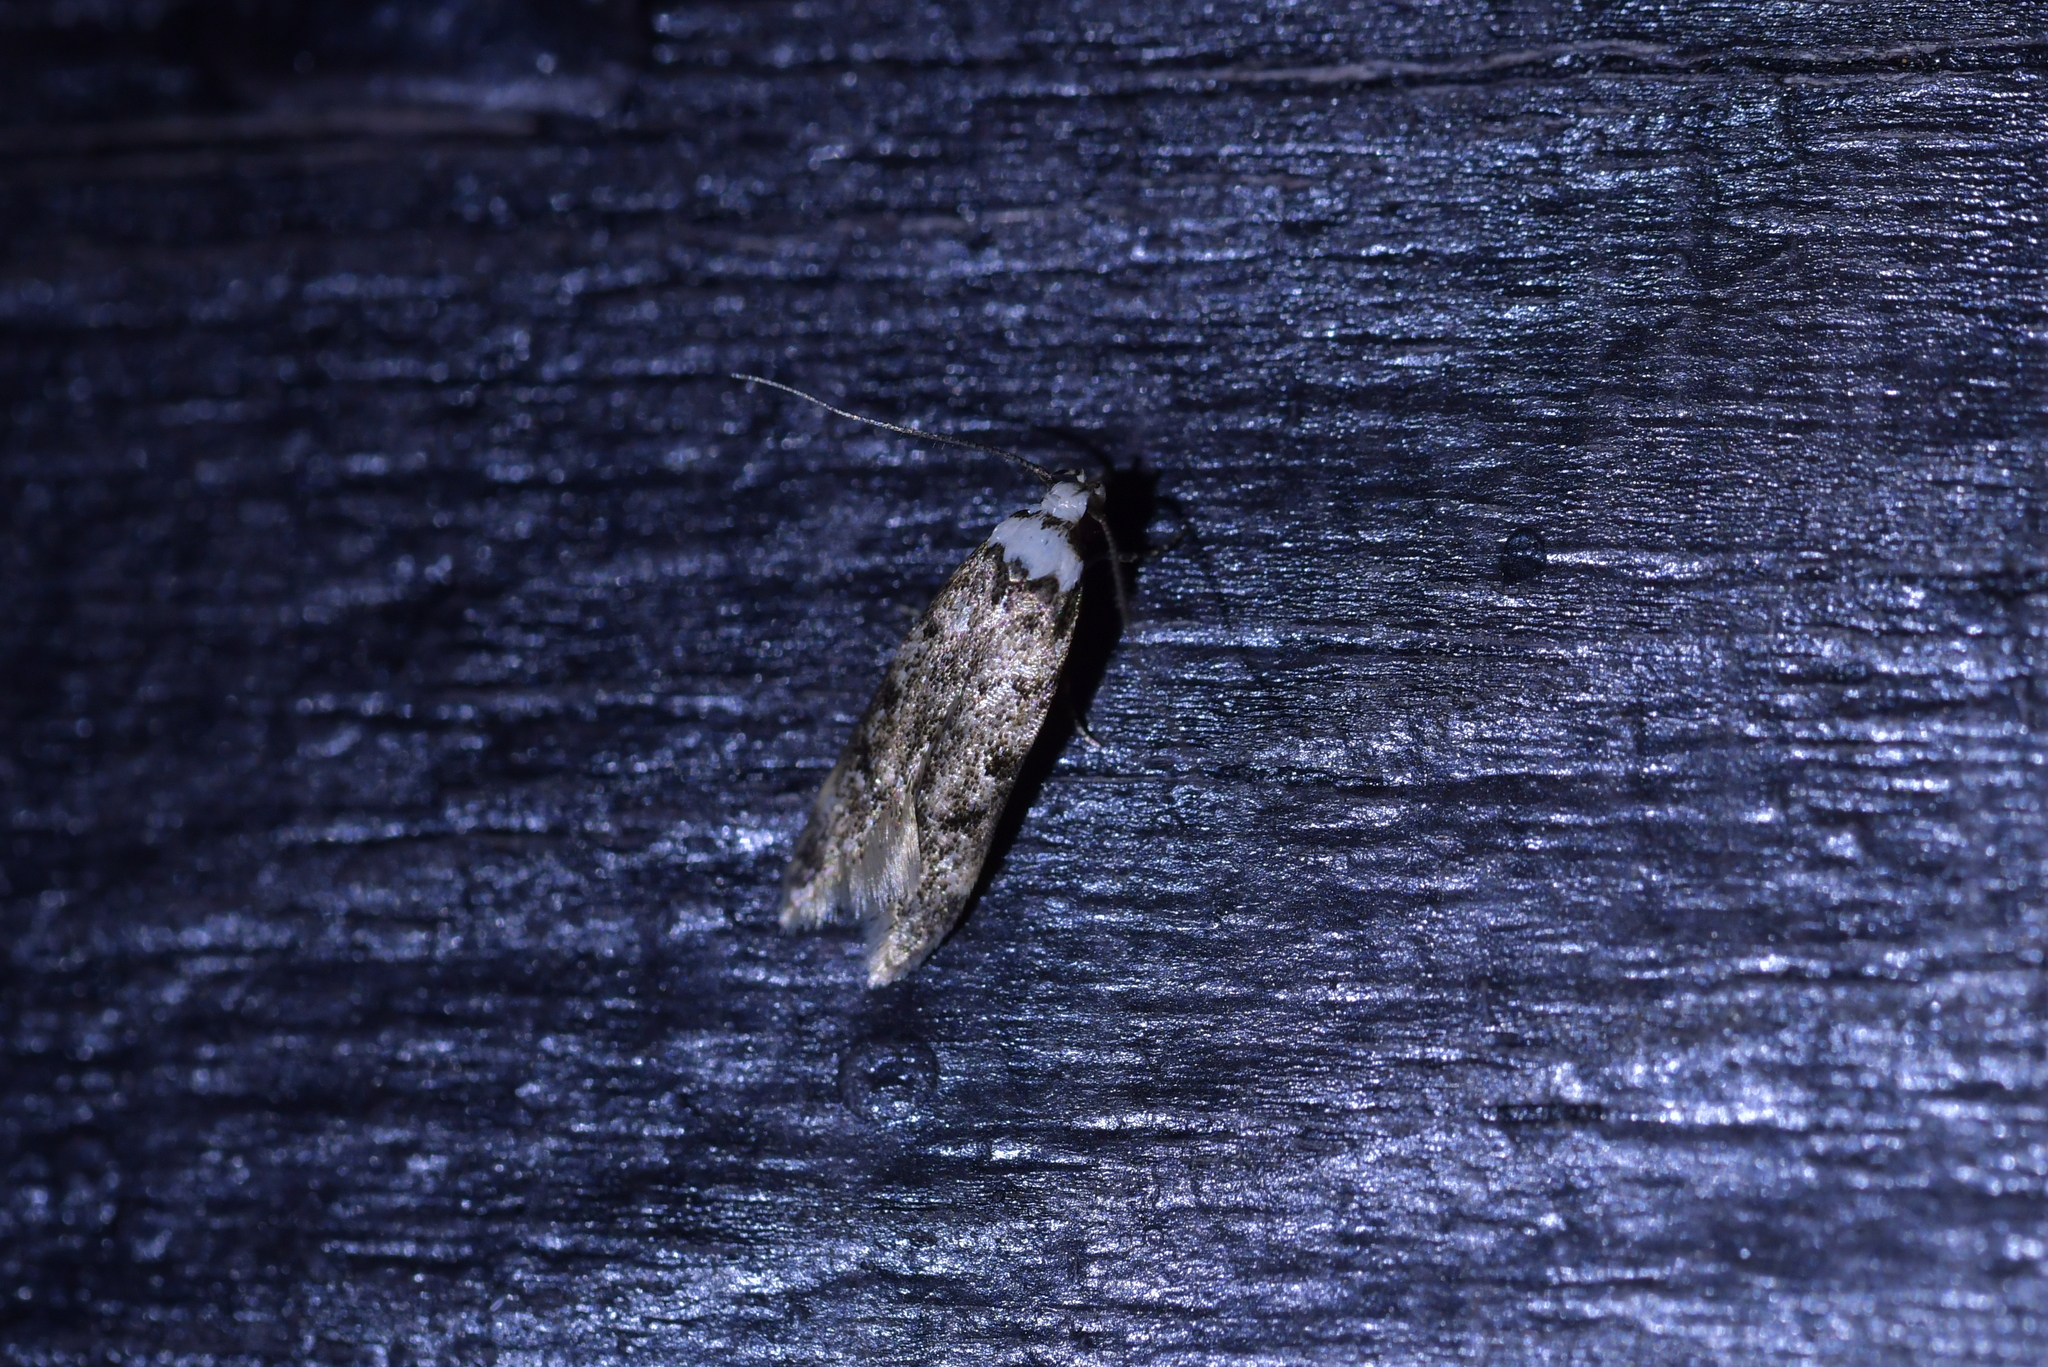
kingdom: Animalia
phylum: Arthropoda
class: Insecta
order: Lepidoptera
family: Oecophoridae
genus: Endrosis
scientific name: Endrosis sarcitrella
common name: White-shouldered house moth
